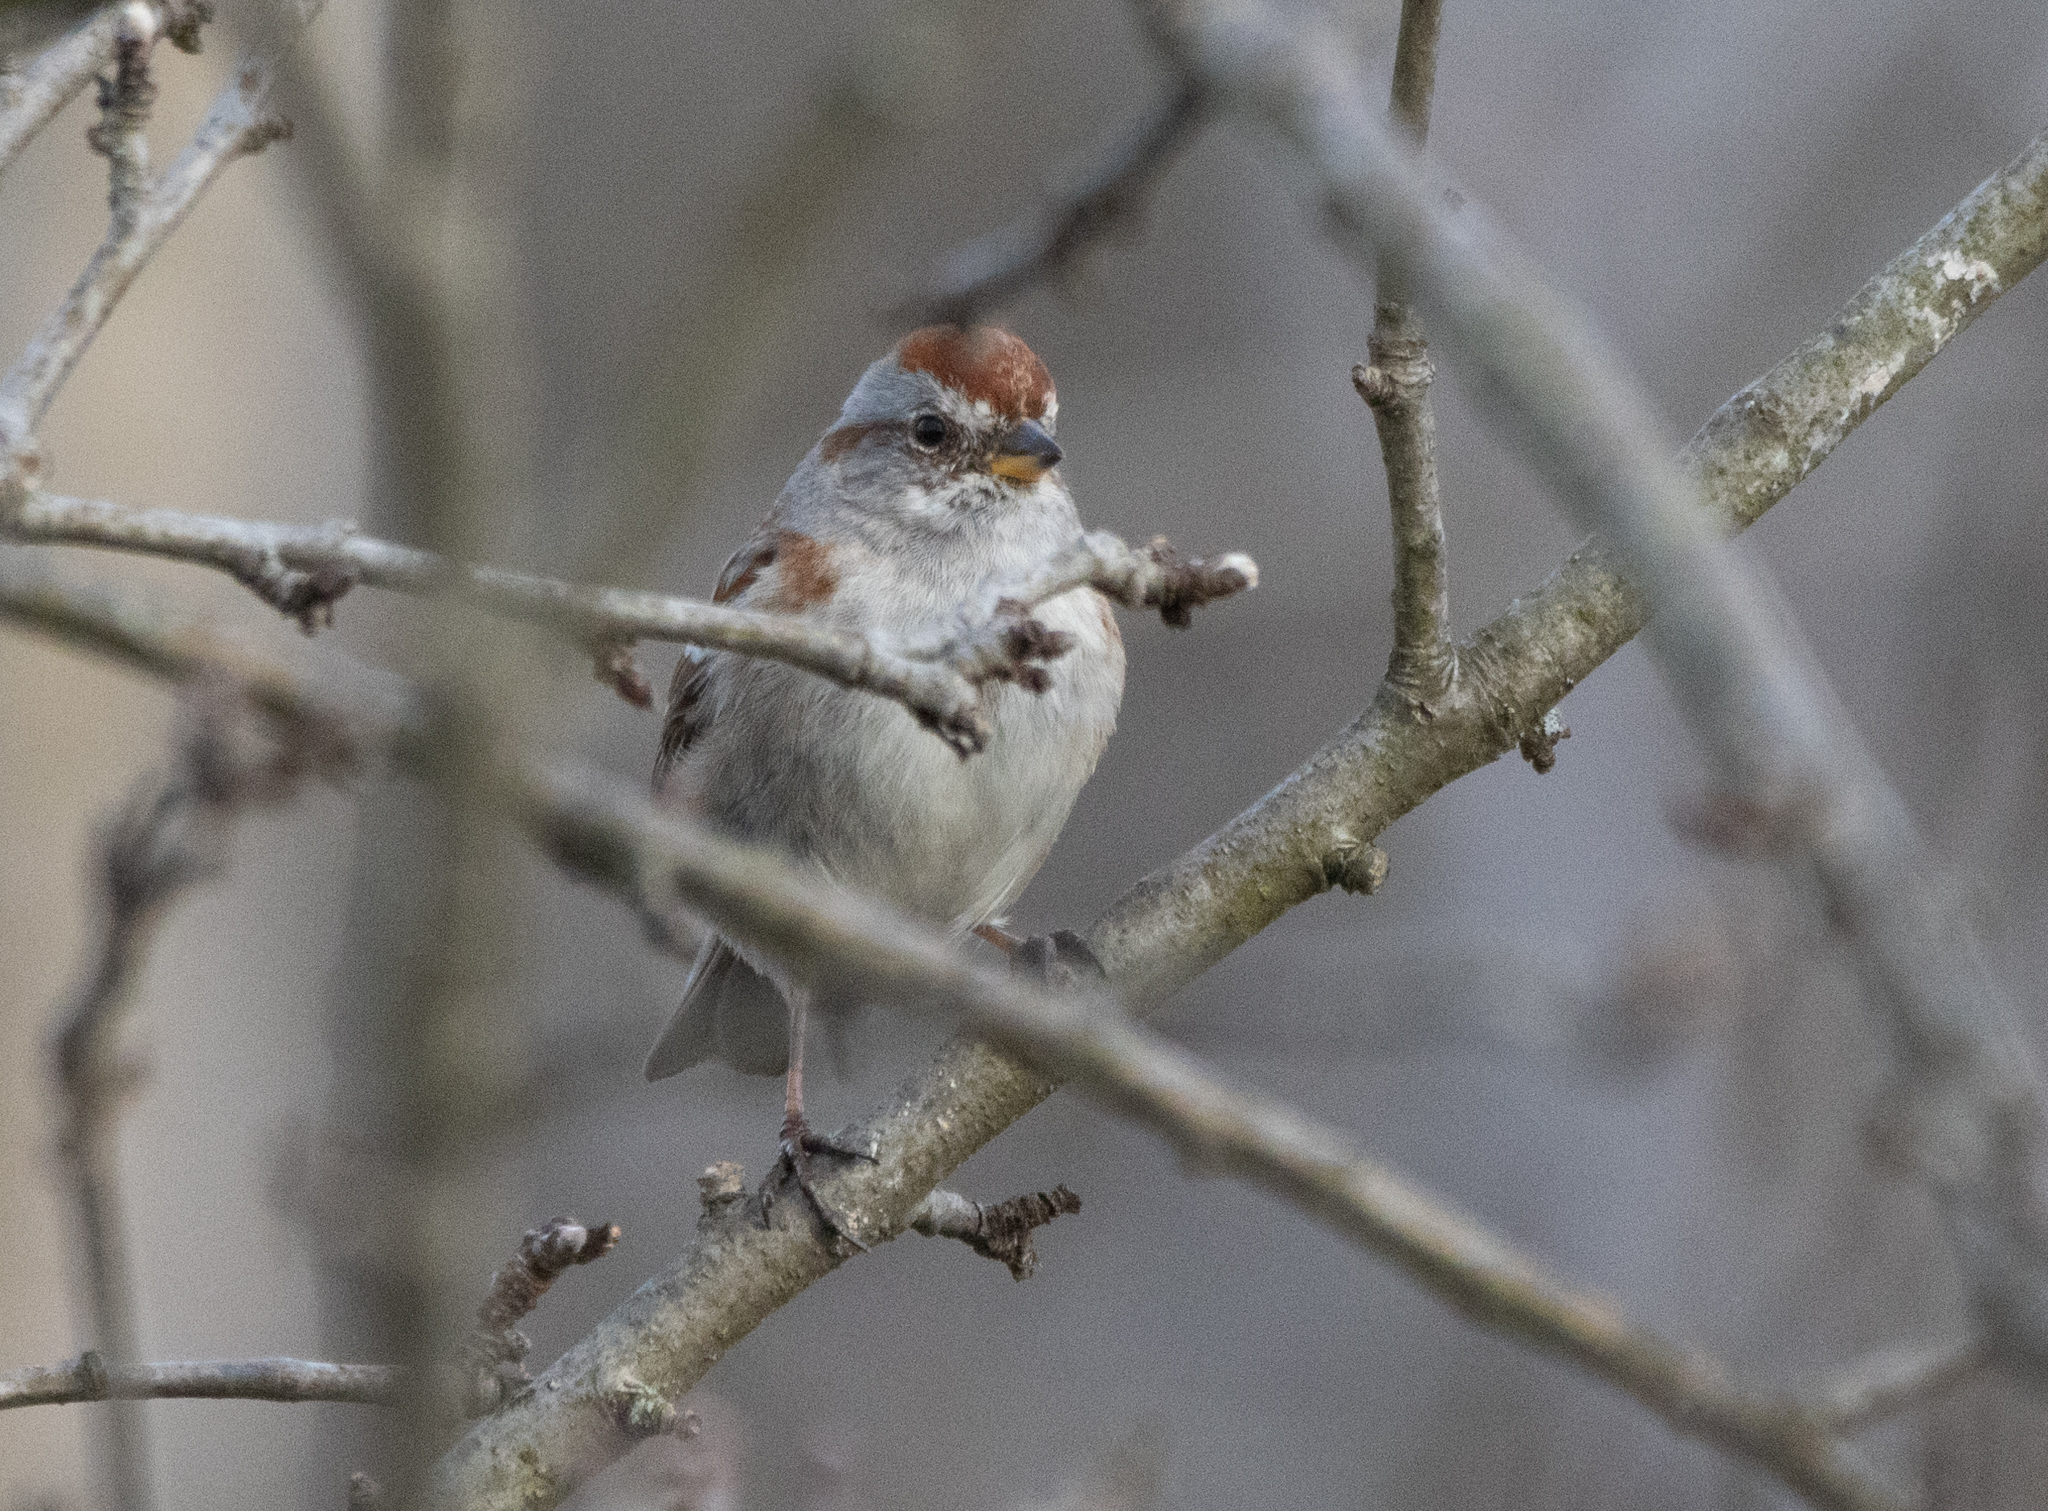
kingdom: Animalia
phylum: Chordata
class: Aves
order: Passeriformes
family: Passerellidae
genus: Spizelloides
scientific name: Spizelloides arborea
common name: American tree sparrow
